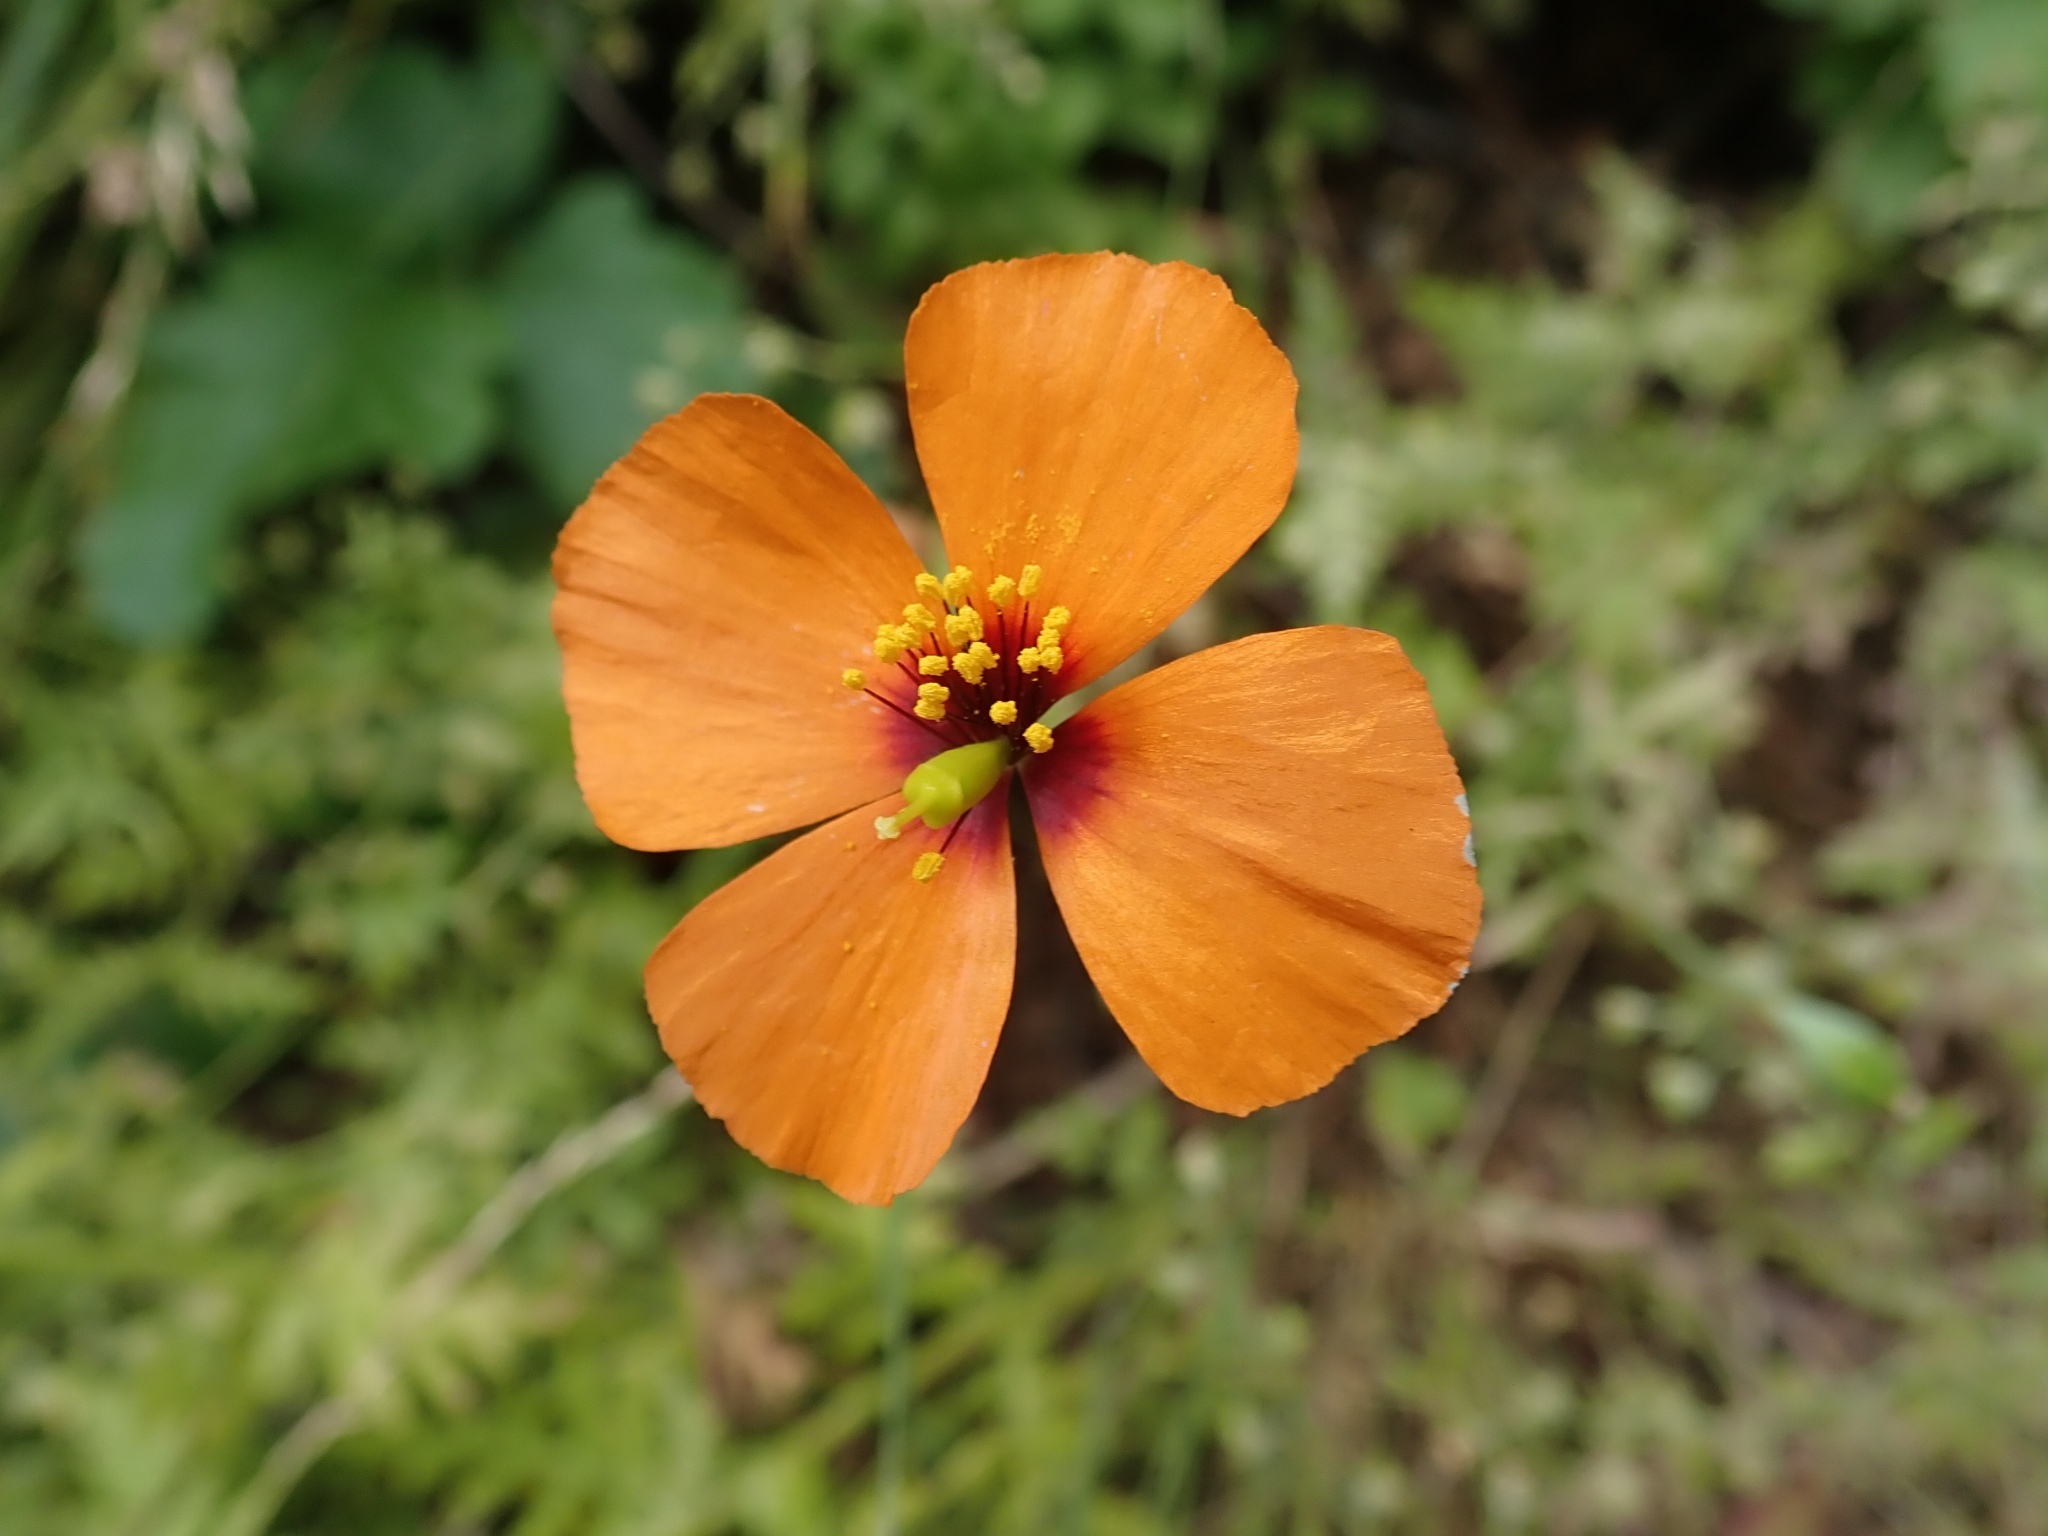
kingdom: Plantae
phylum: Tracheophyta
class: Magnoliopsida
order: Ranunculales
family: Papaveraceae
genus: Stylomecon
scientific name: Stylomecon heterophylla
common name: Flaming-poppy
